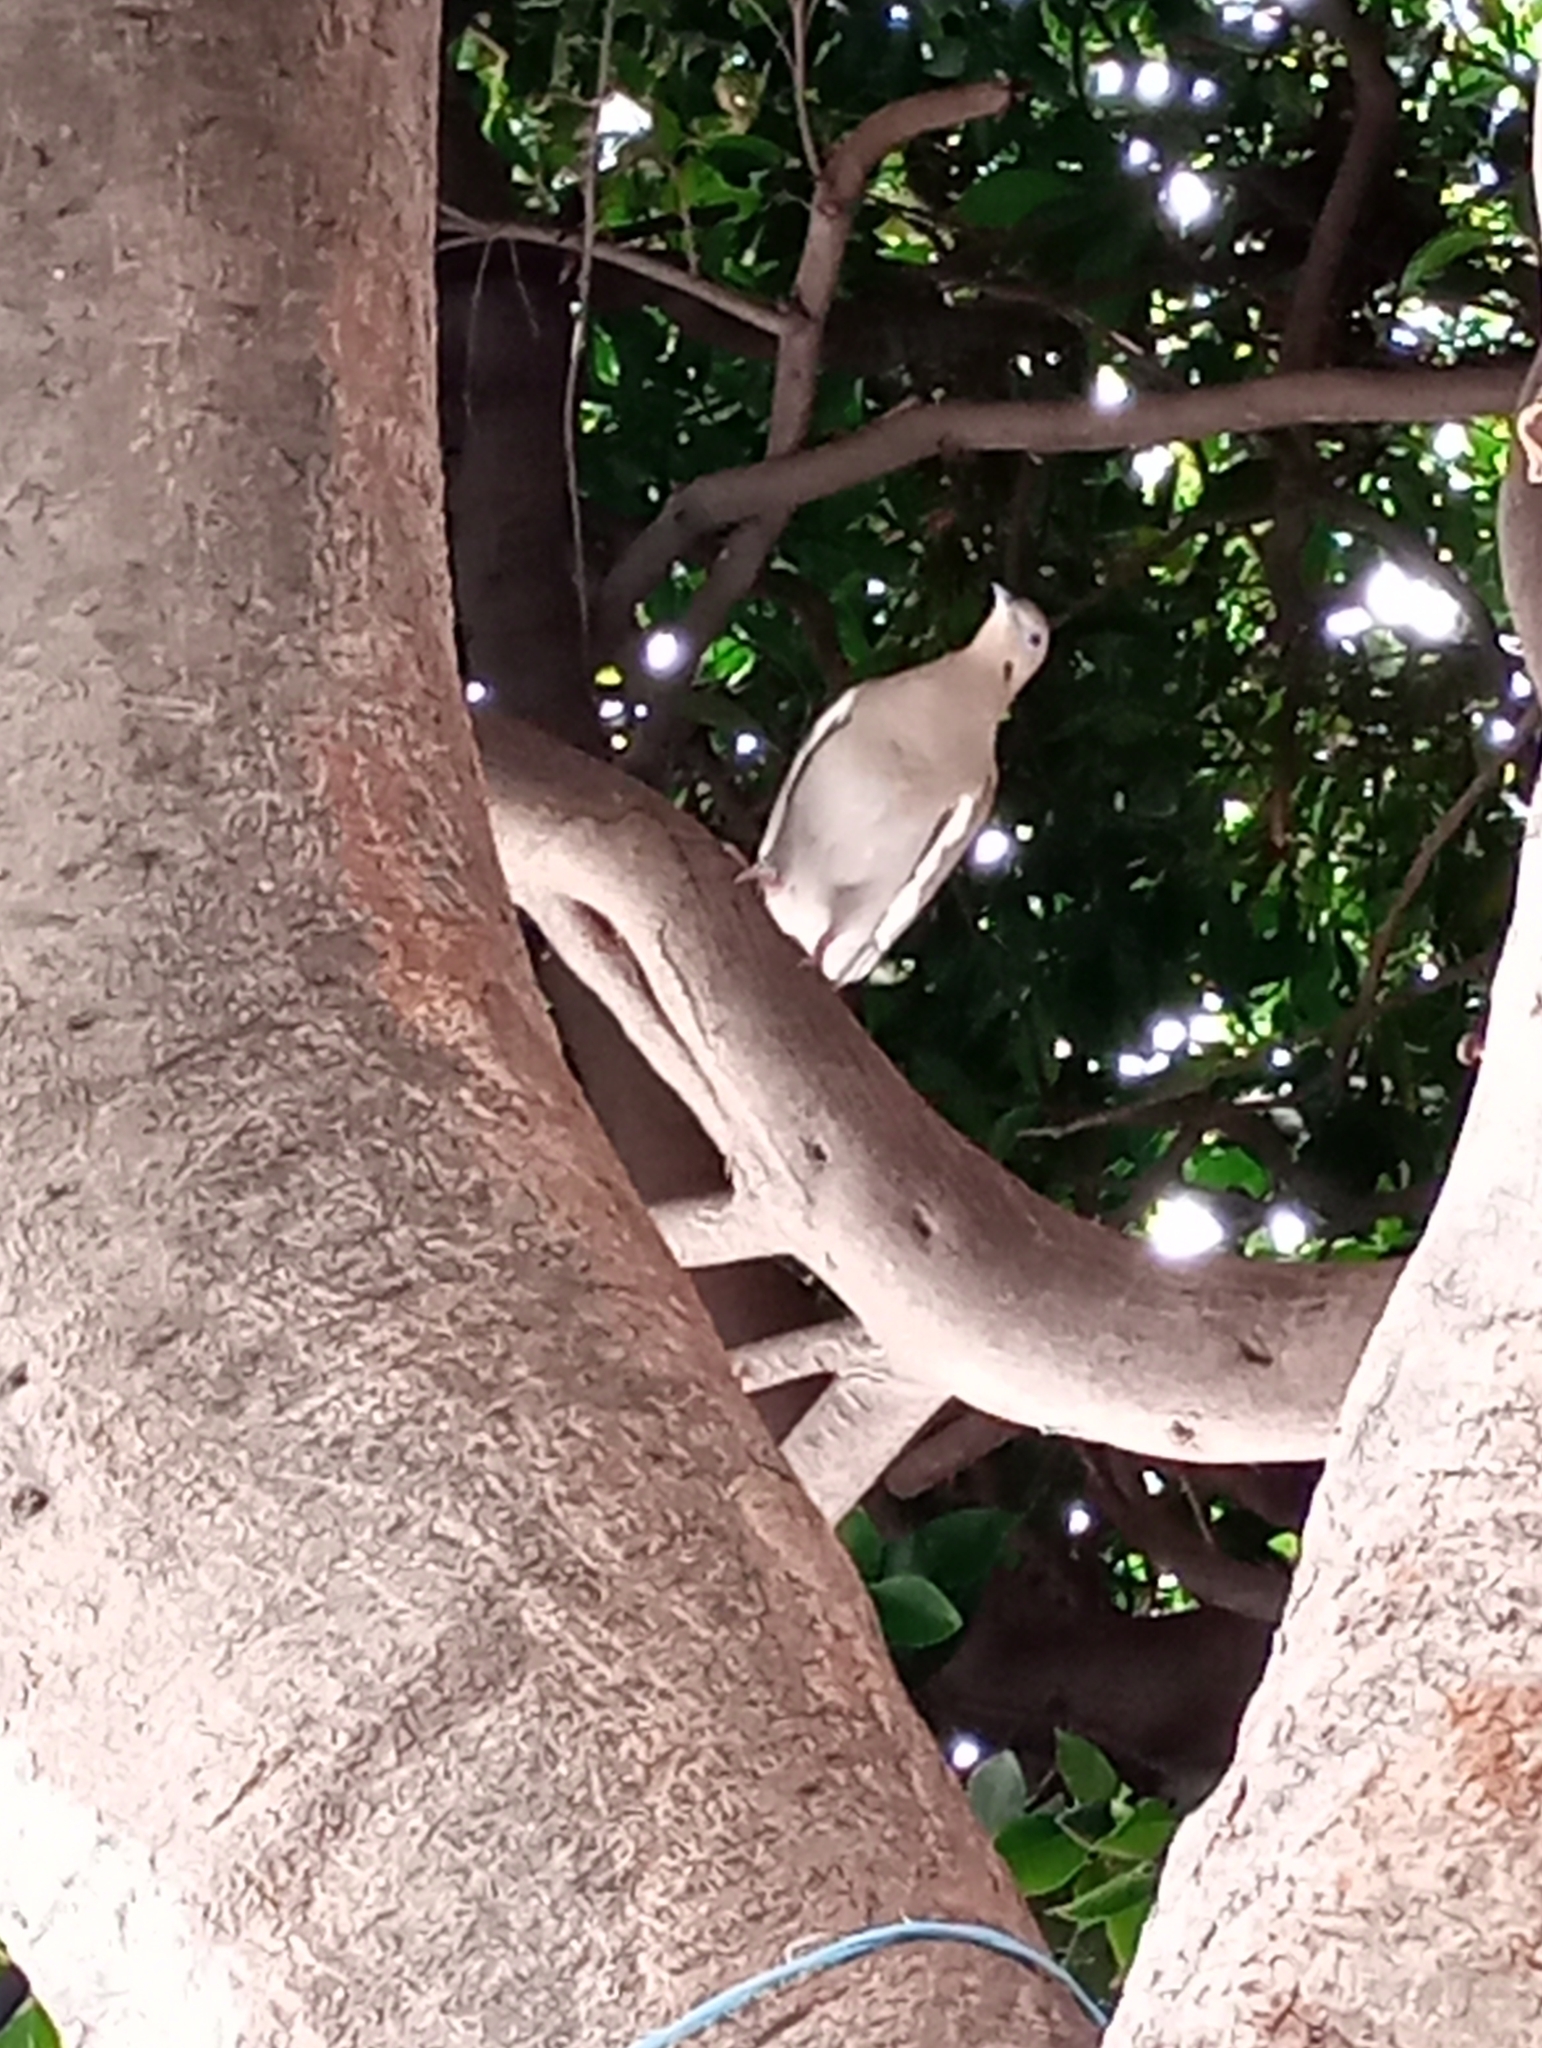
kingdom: Animalia
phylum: Chordata
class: Aves
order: Columbiformes
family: Columbidae
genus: Zenaida
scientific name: Zenaida asiatica
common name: White-winged dove
